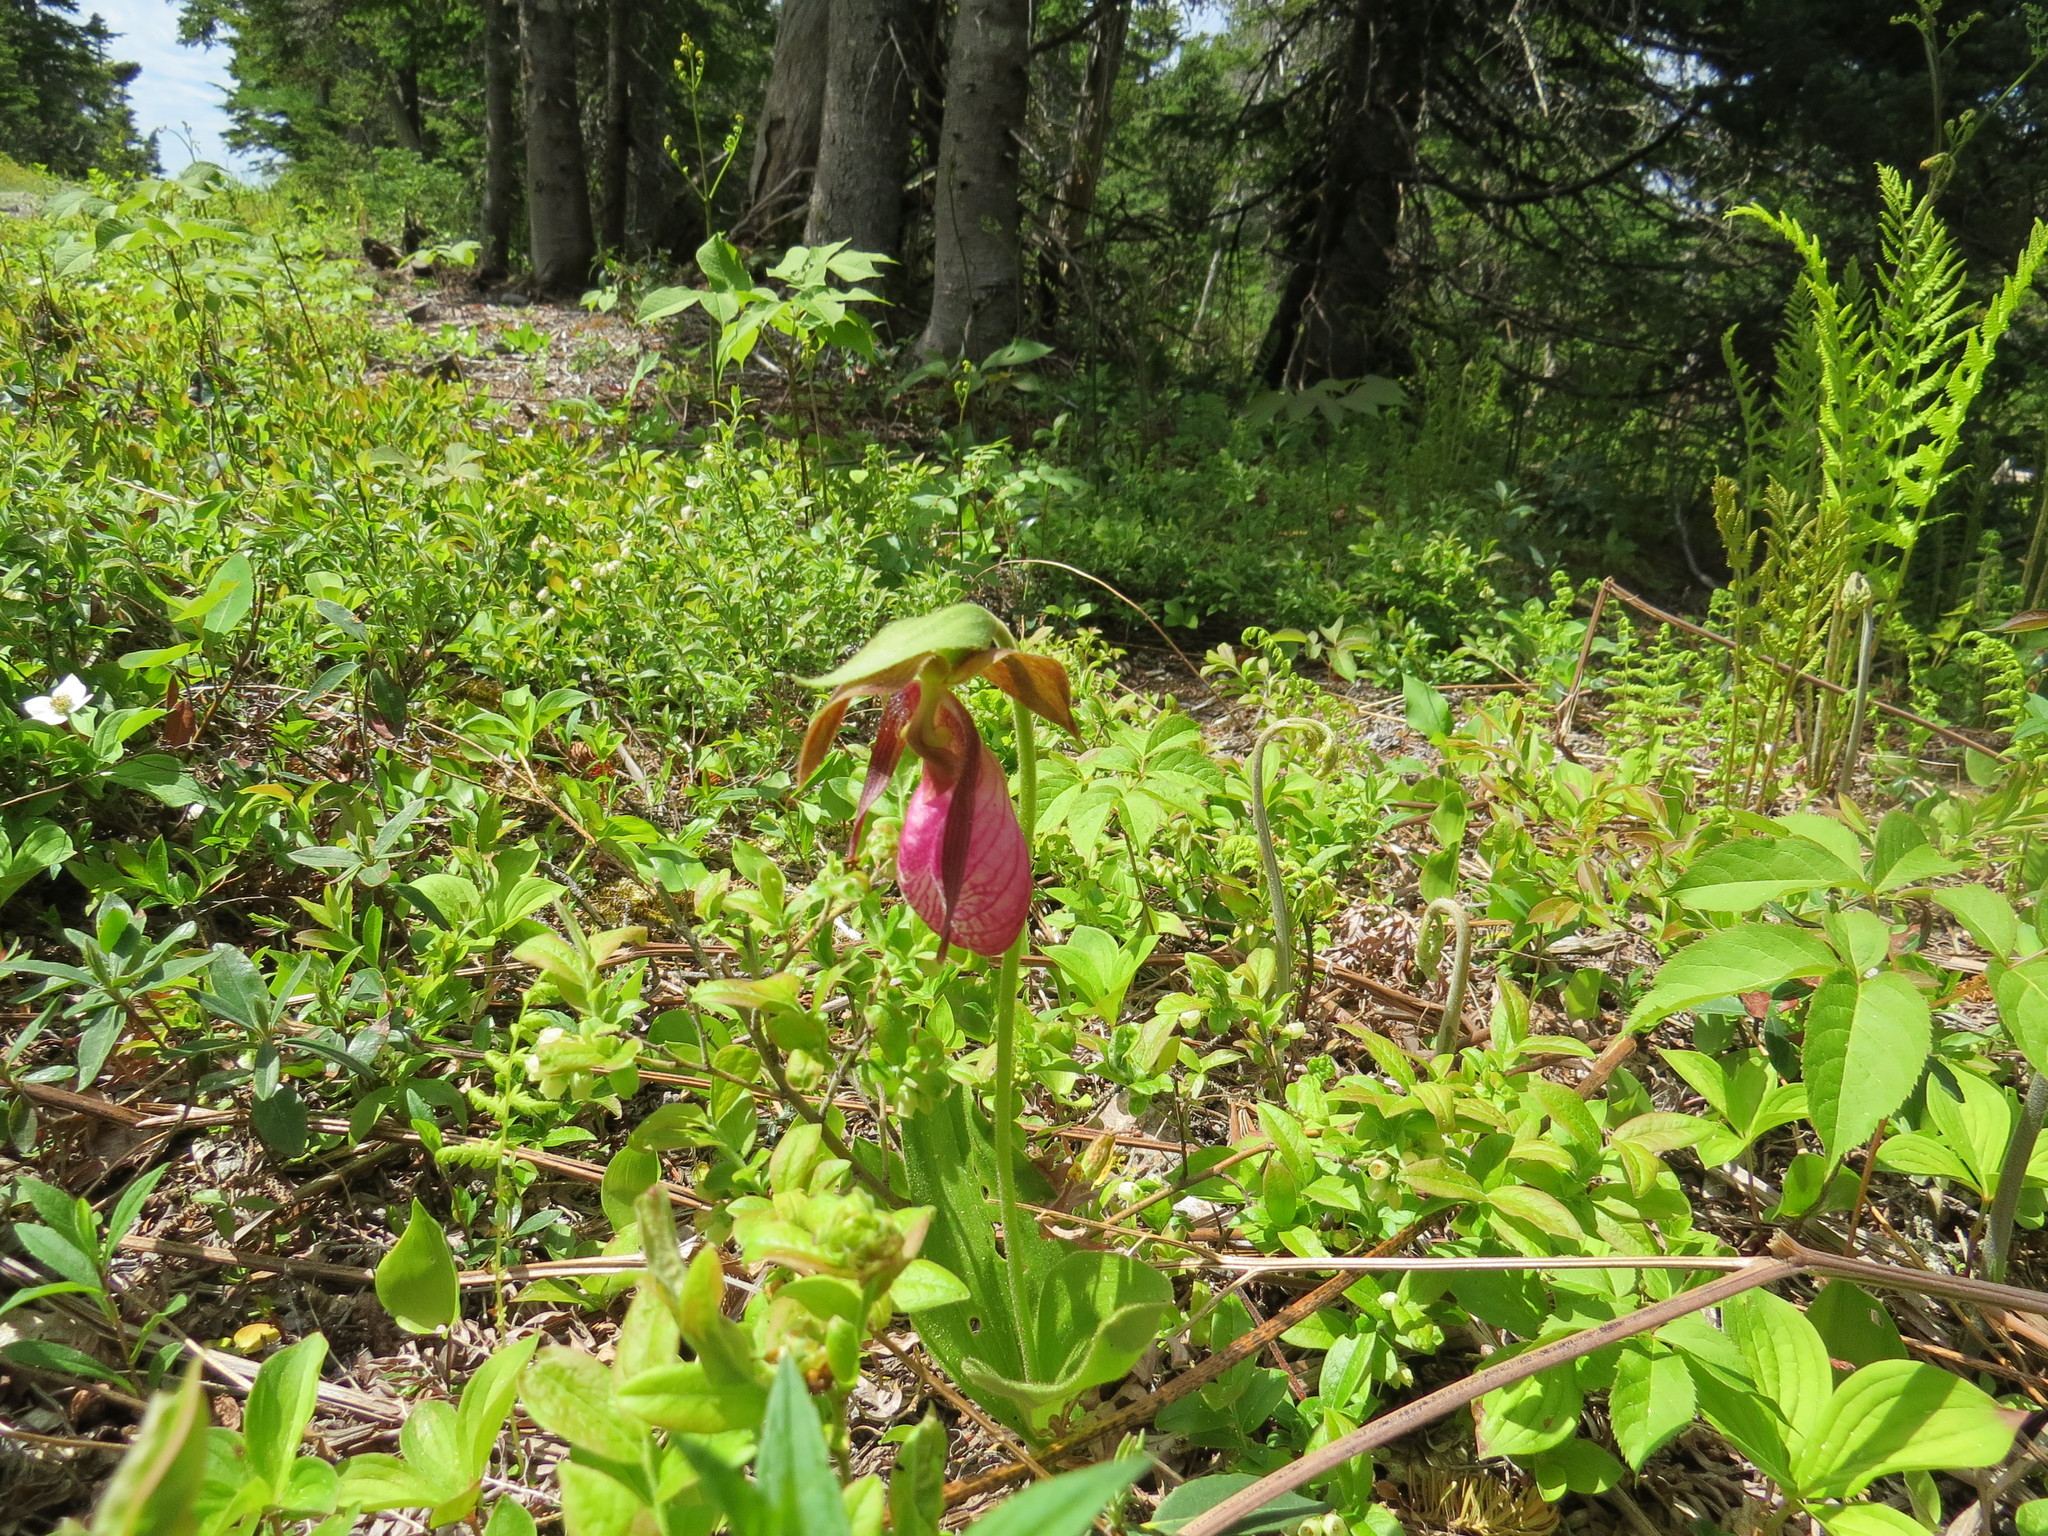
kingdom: Plantae
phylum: Tracheophyta
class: Liliopsida
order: Asparagales
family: Orchidaceae
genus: Cypripedium
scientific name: Cypripedium acaule
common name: Pink lady's-slipper
